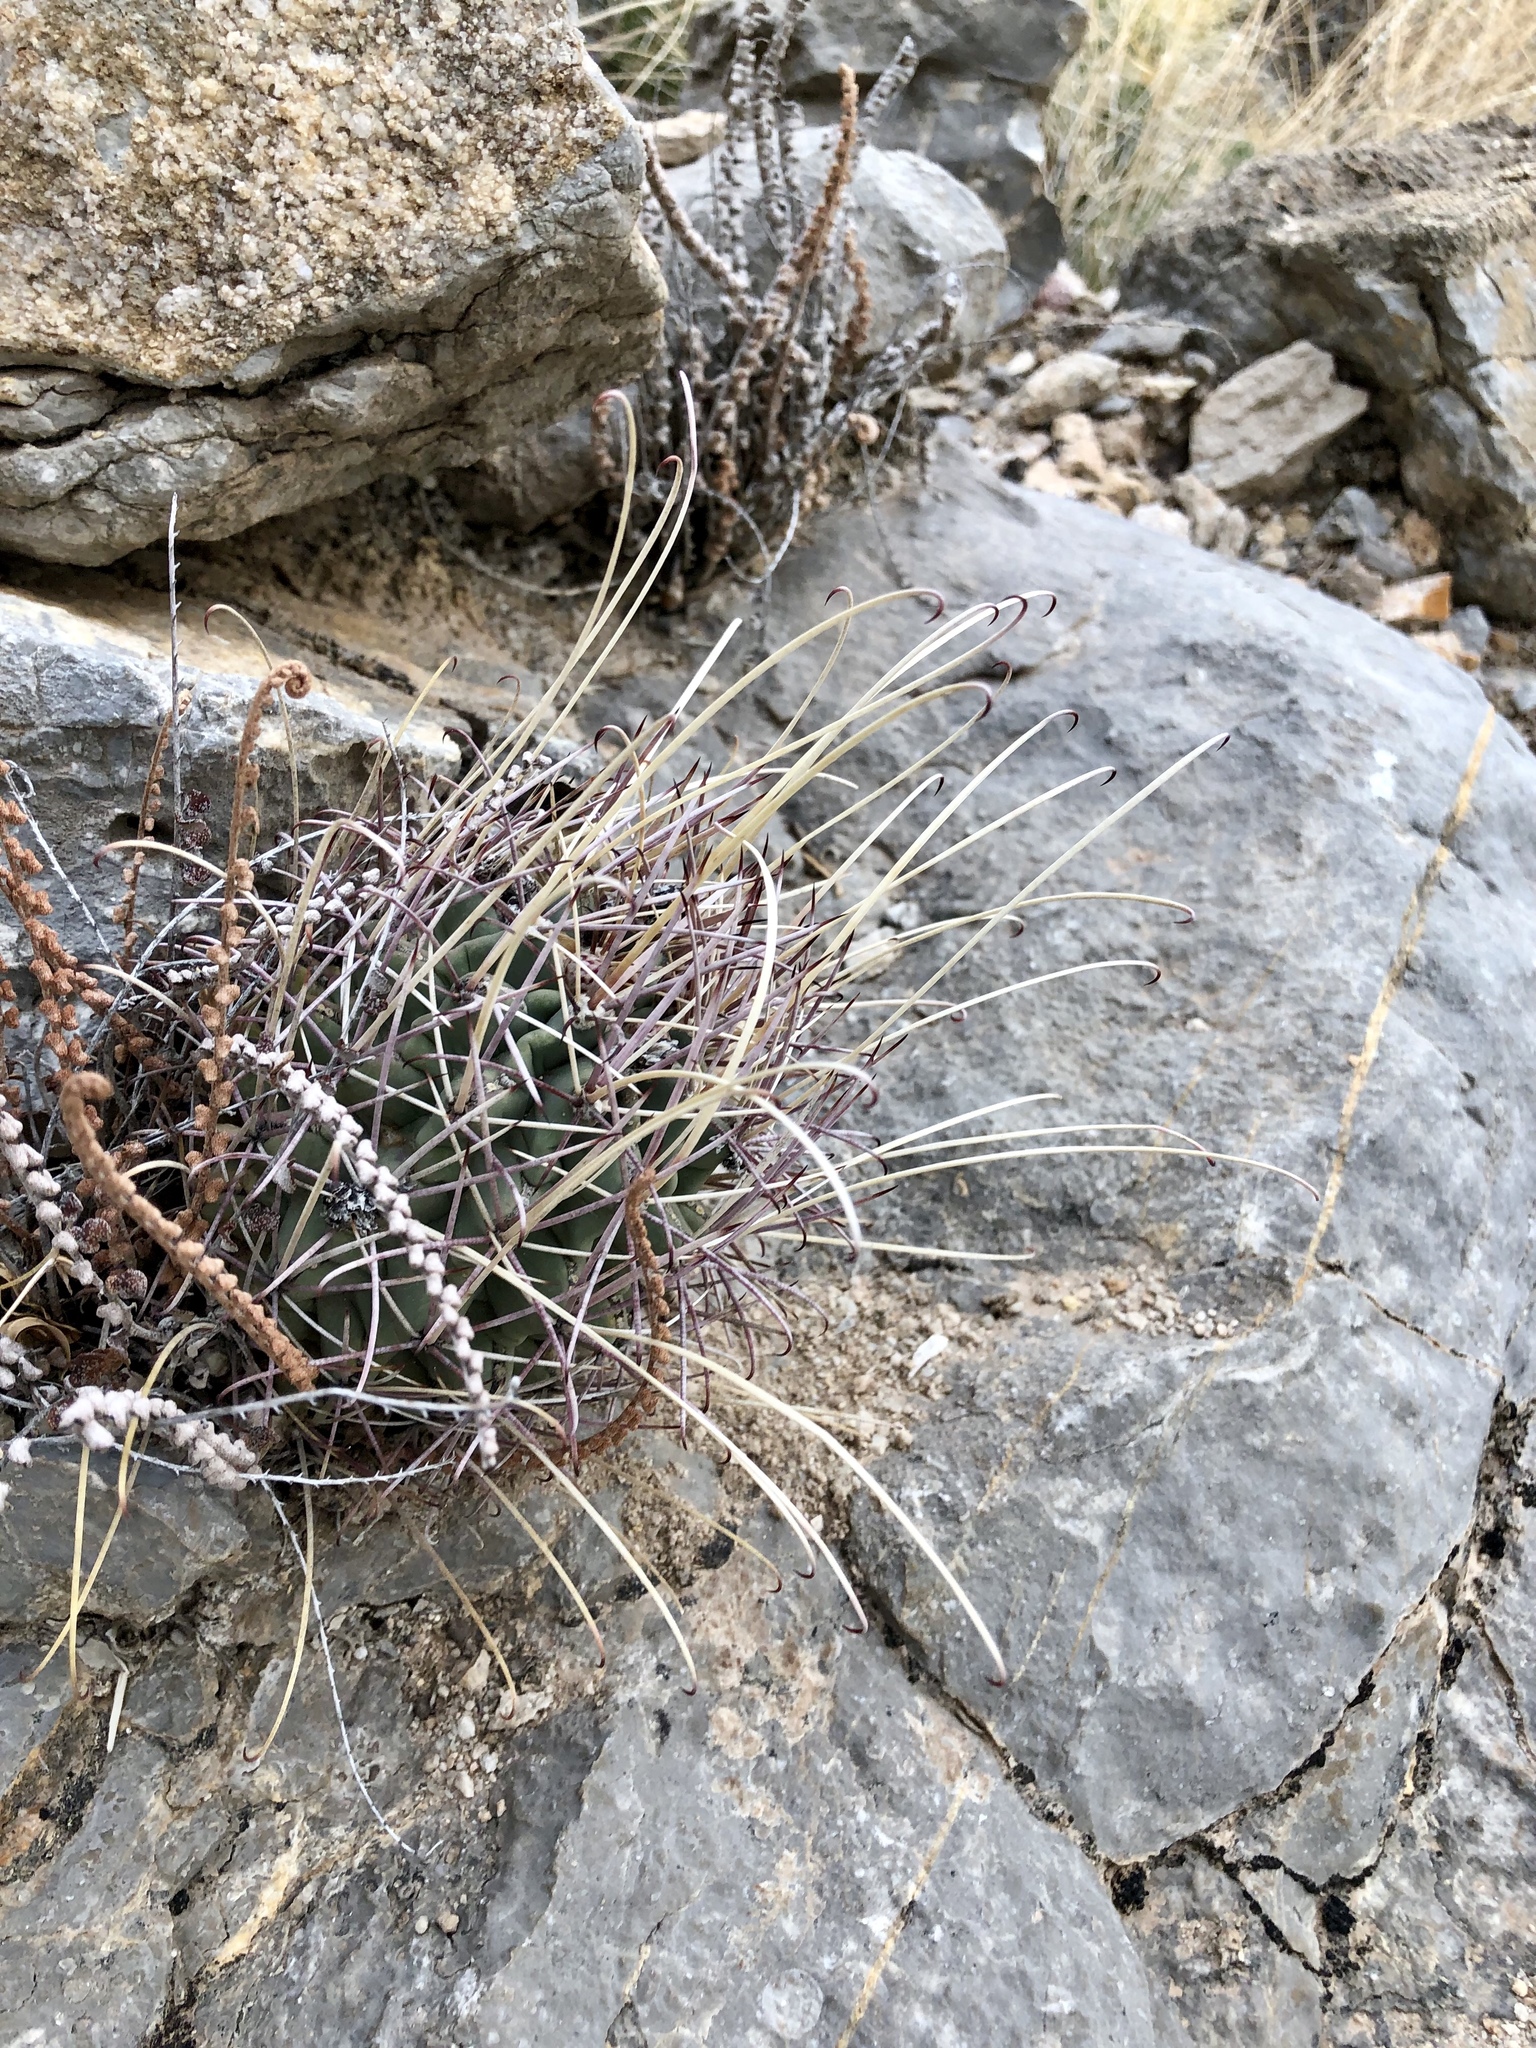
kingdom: Plantae
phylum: Tracheophyta
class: Magnoliopsida
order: Caryophyllales
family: Cactaceae
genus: Ferocactus
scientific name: Ferocactus uncinatus
